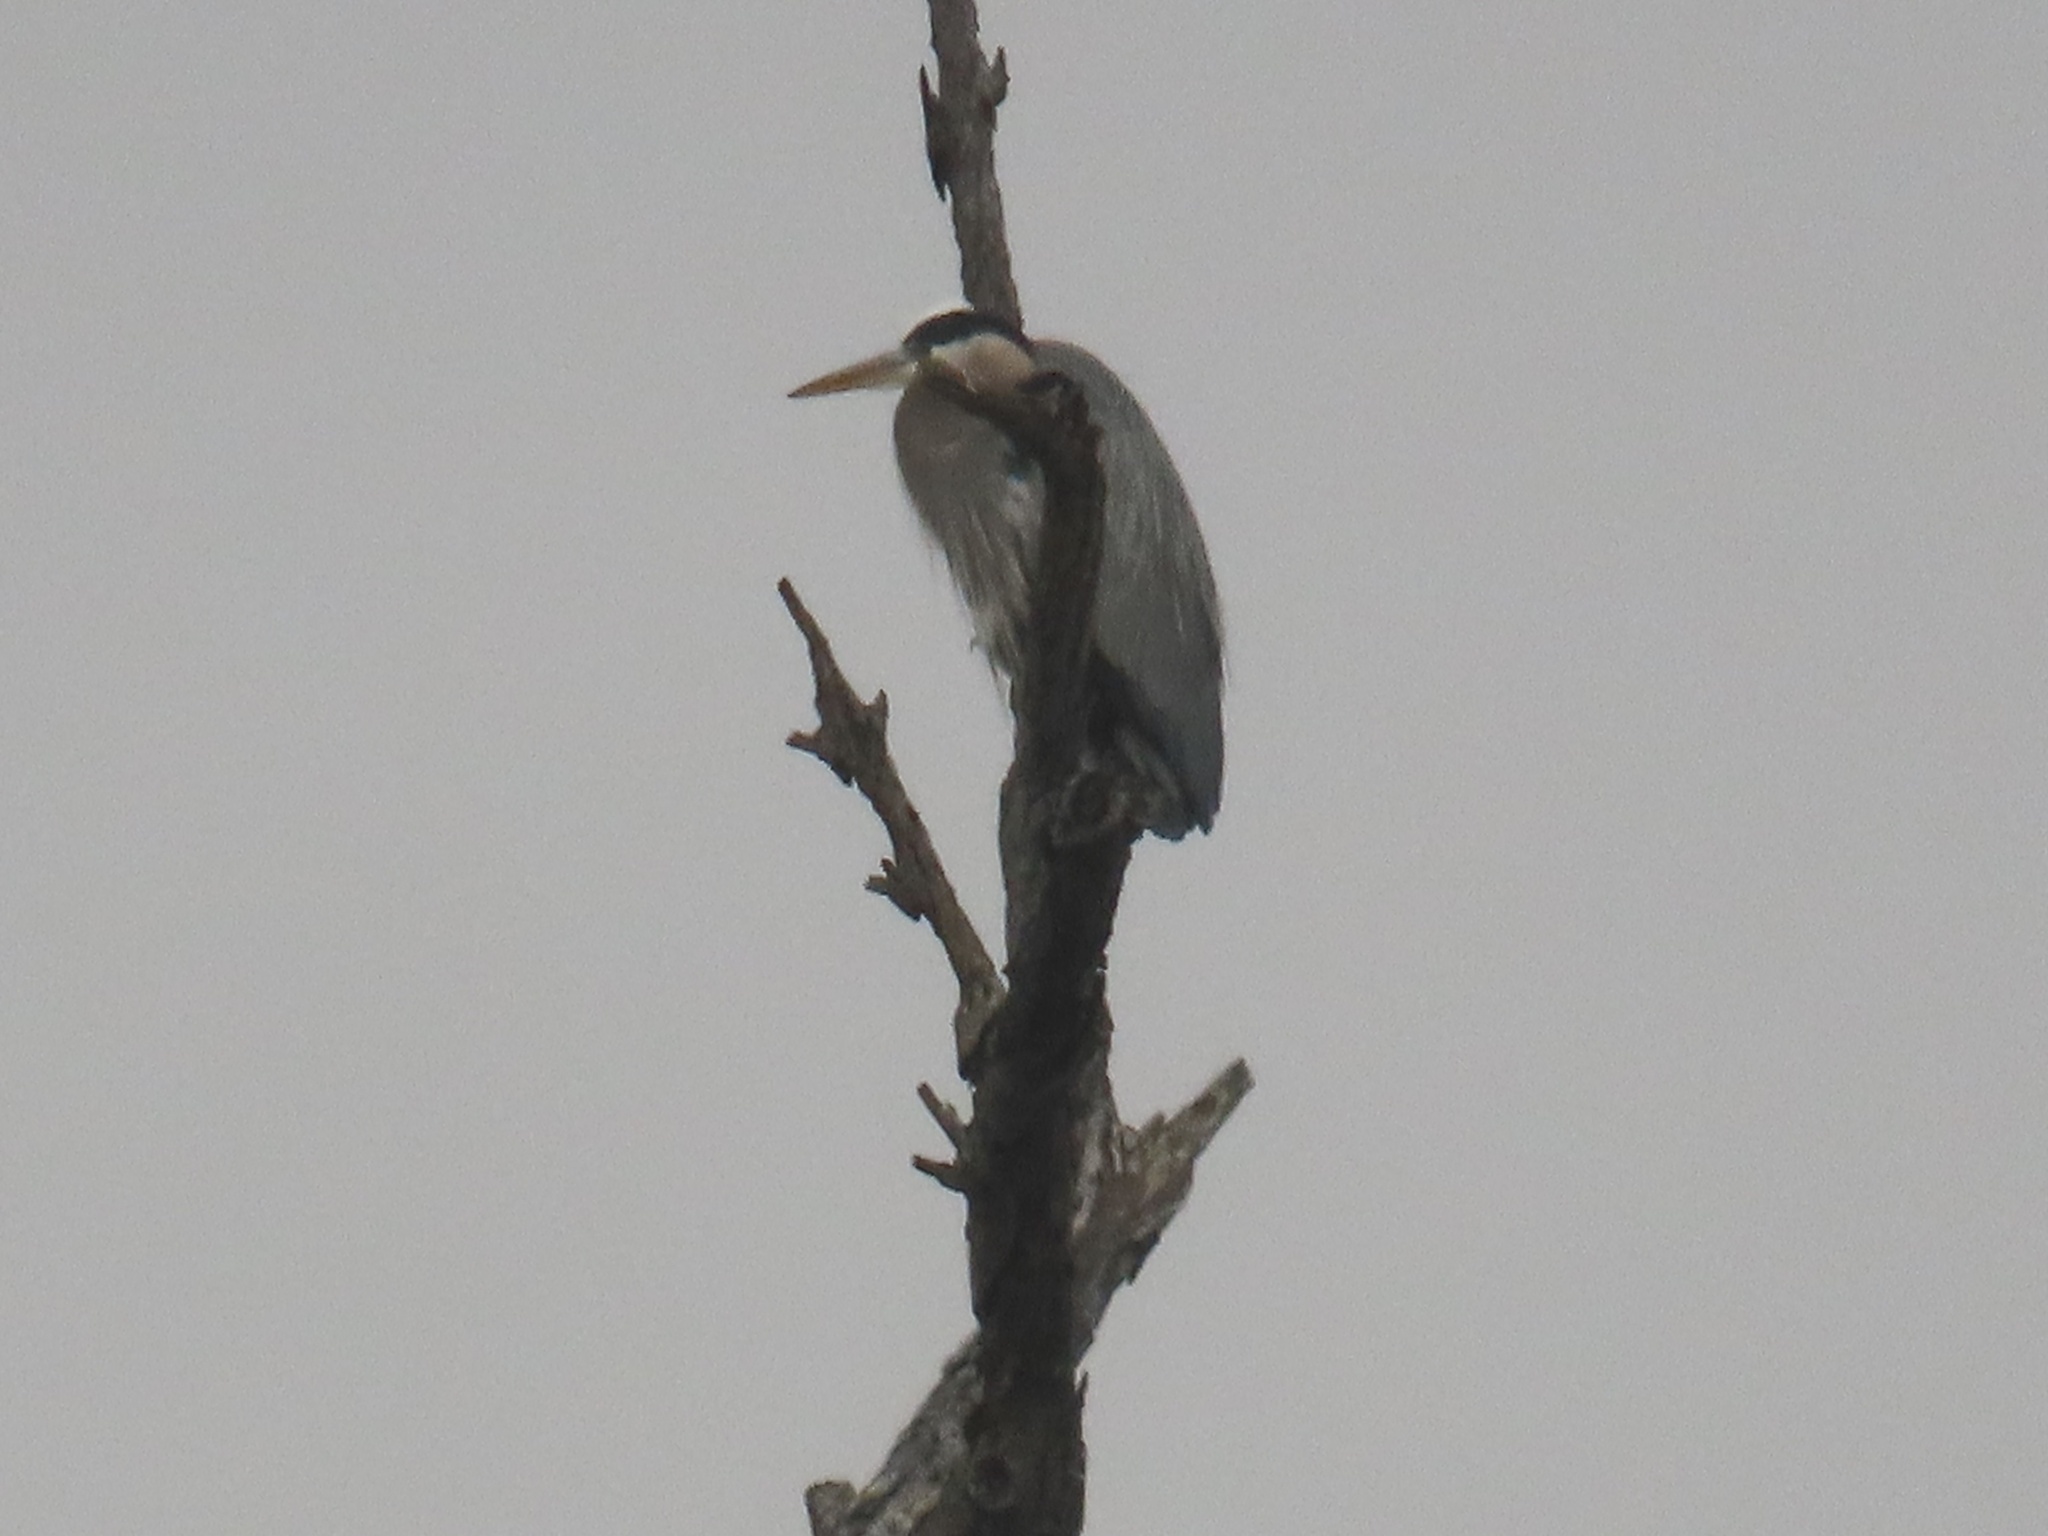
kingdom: Animalia
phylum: Chordata
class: Aves
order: Pelecaniformes
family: Ardeidae
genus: Ardea
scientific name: Ardea herodias
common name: Great blue heron
